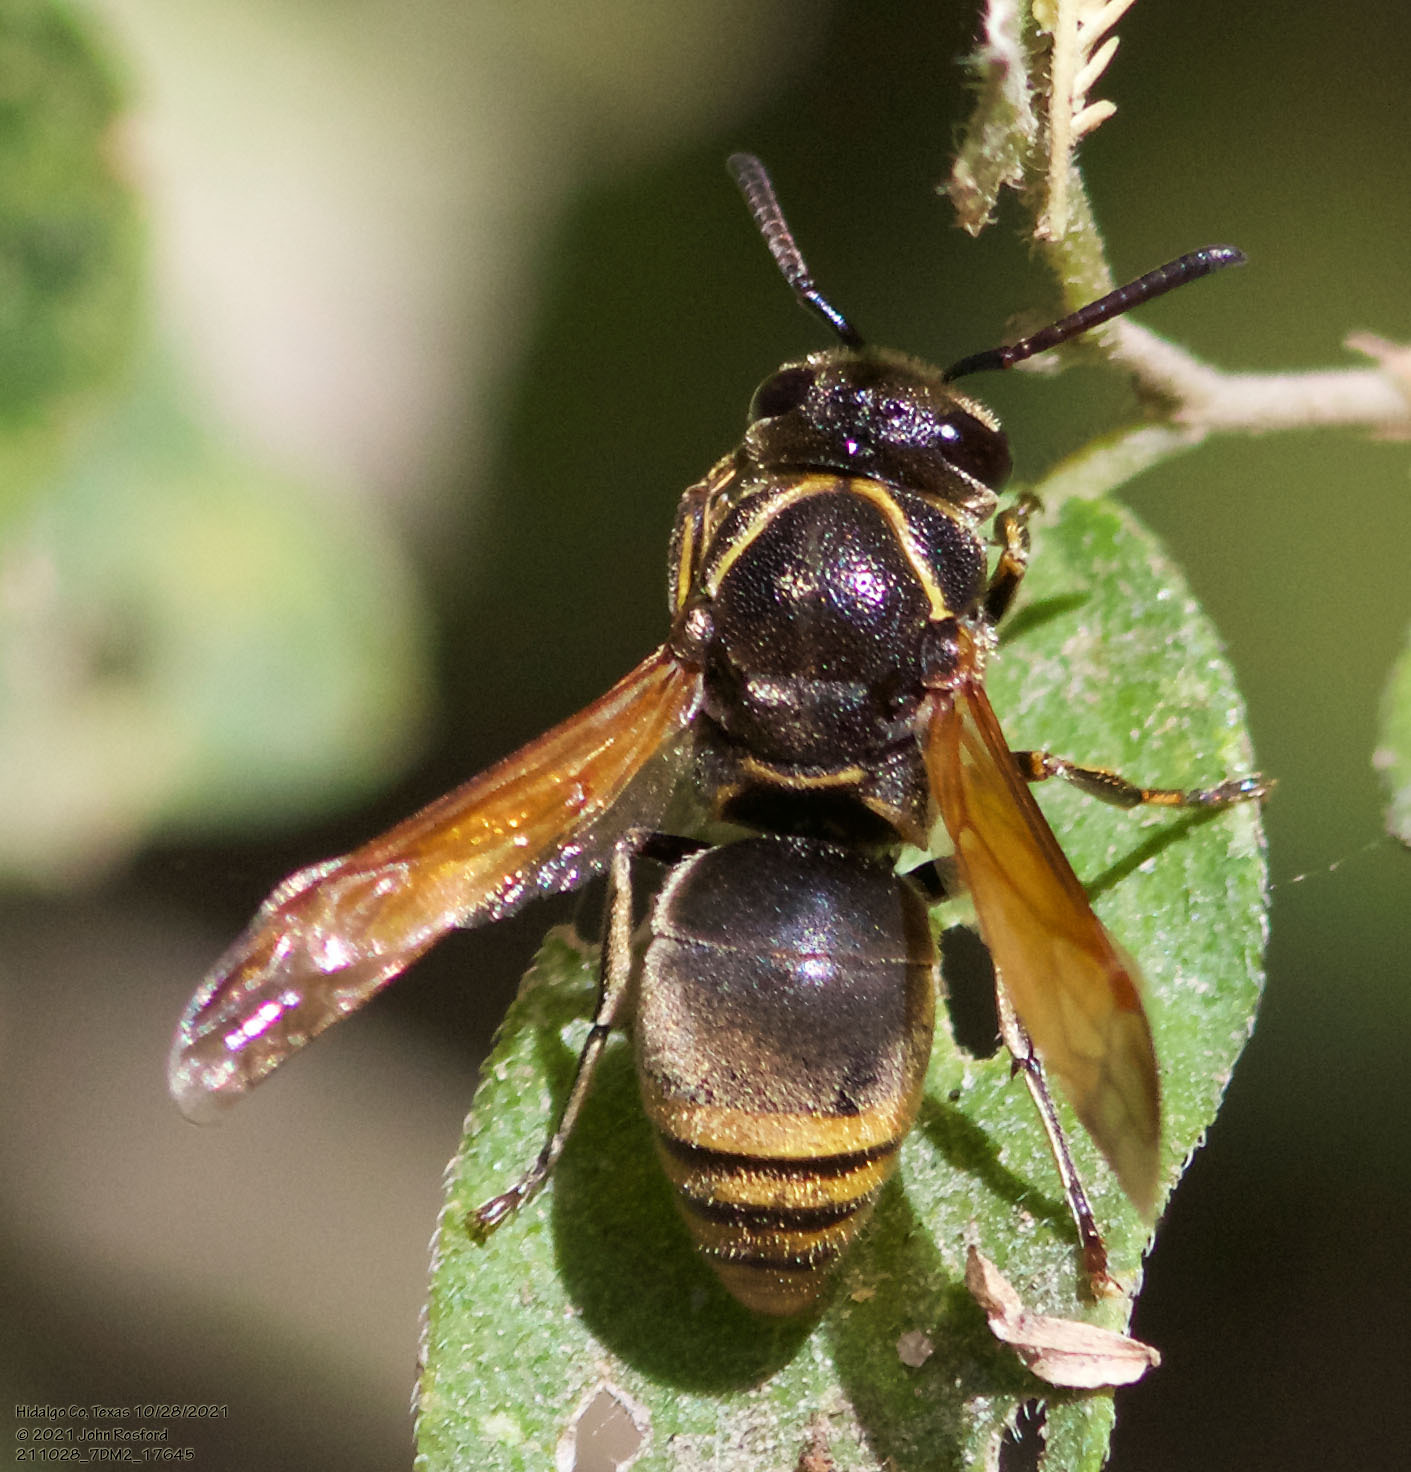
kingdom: Animalia
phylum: Arthropoda
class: Insecta
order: Hymenoptera
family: Eumenidae
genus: Pachodynerus
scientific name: Pachodynerus
